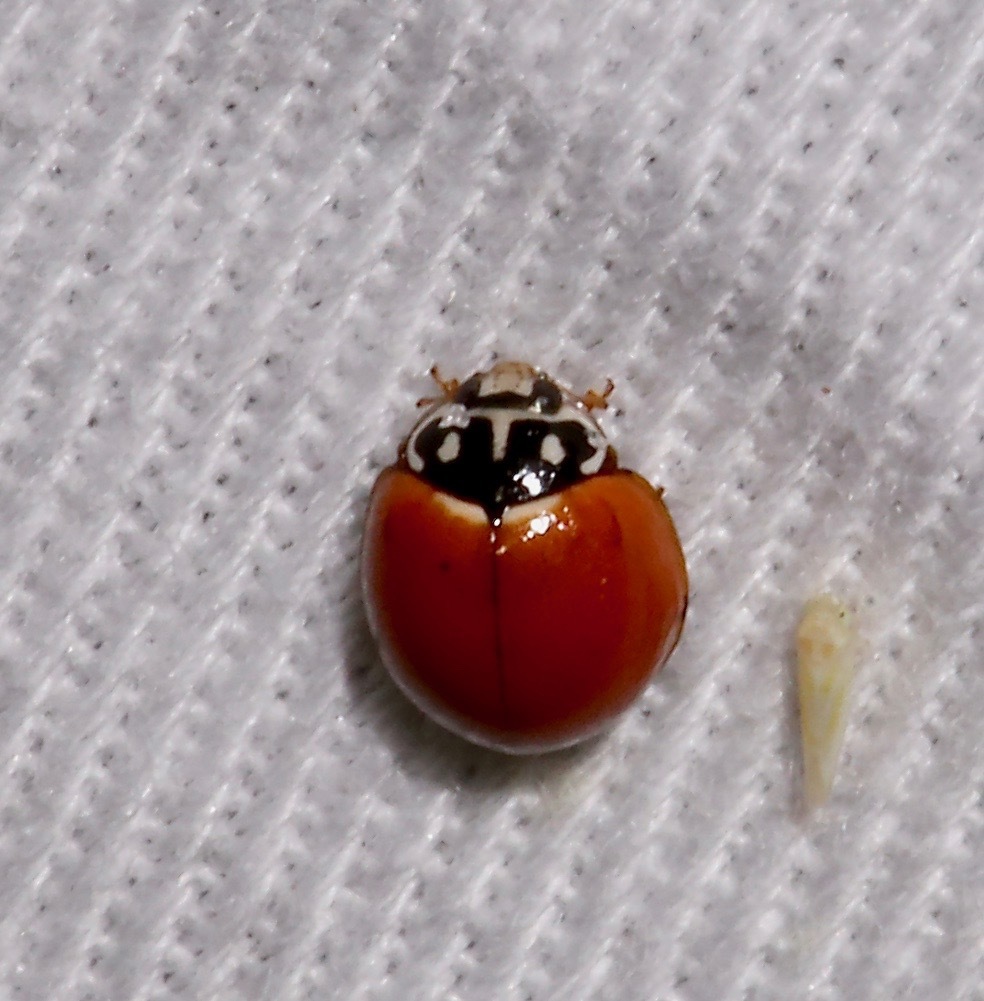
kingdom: Animalia
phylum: Arthropoda
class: Insecta
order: Coleoptera
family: Coccinellidae
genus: Cycloneda
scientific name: Cycloneda sanguinea
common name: Ladybird beetle
